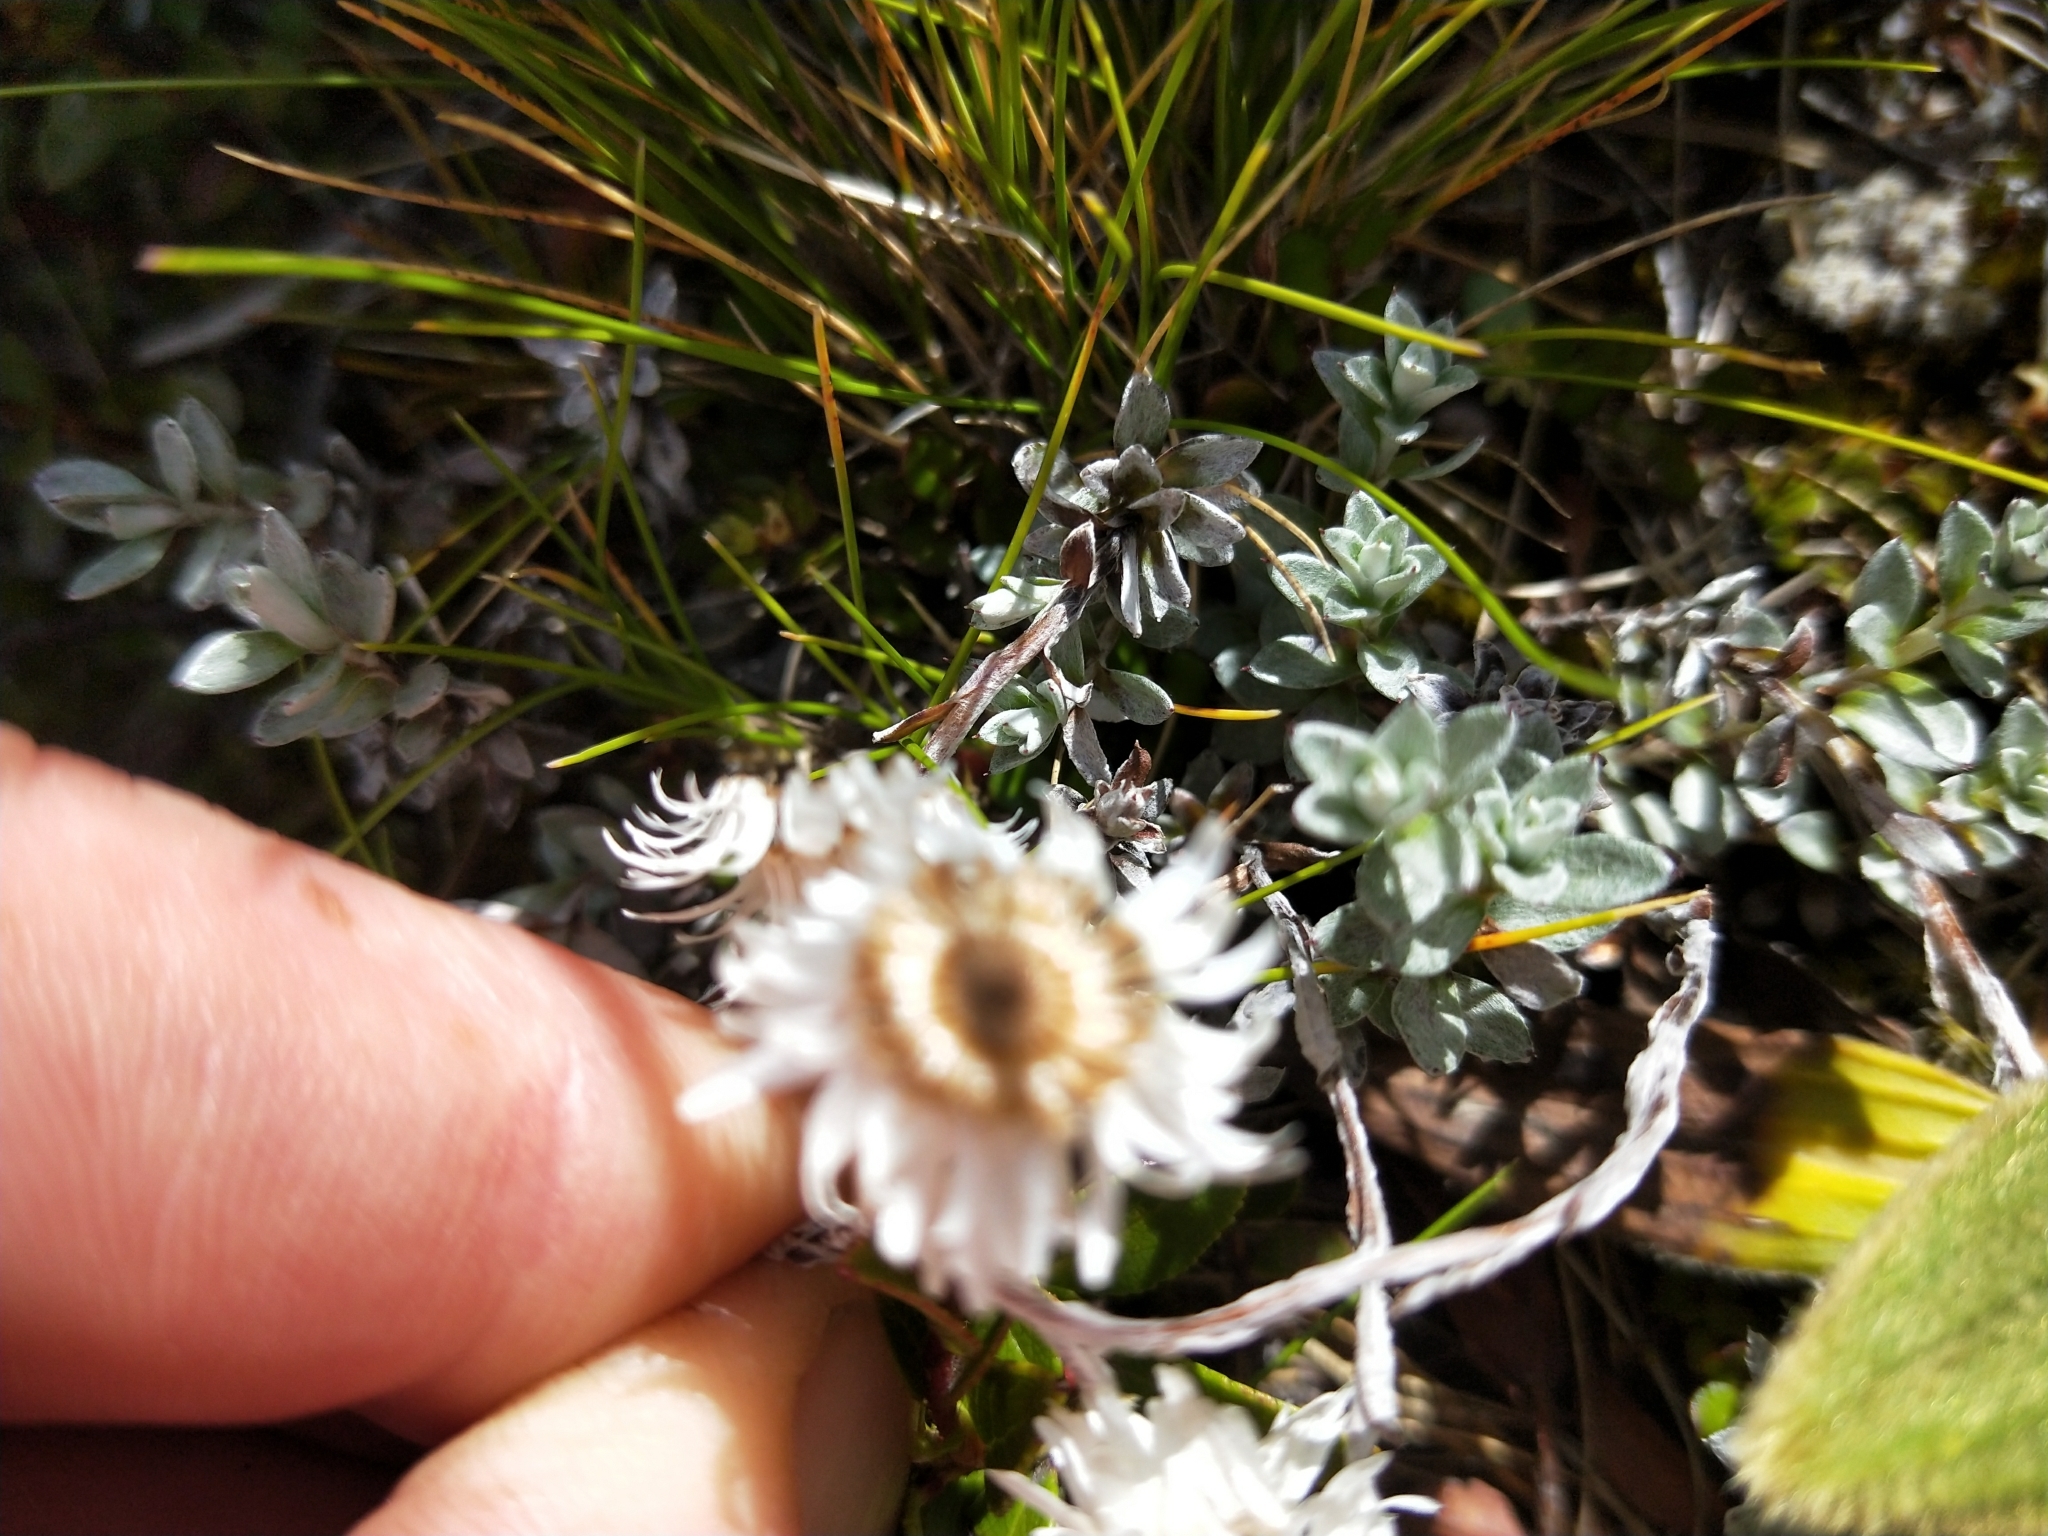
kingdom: Plantae
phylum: Tracheophyta
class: Magnoliopsida
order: Asterales
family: Asteraceae
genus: Anaphalioides
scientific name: Anaphalioides bellidioides
